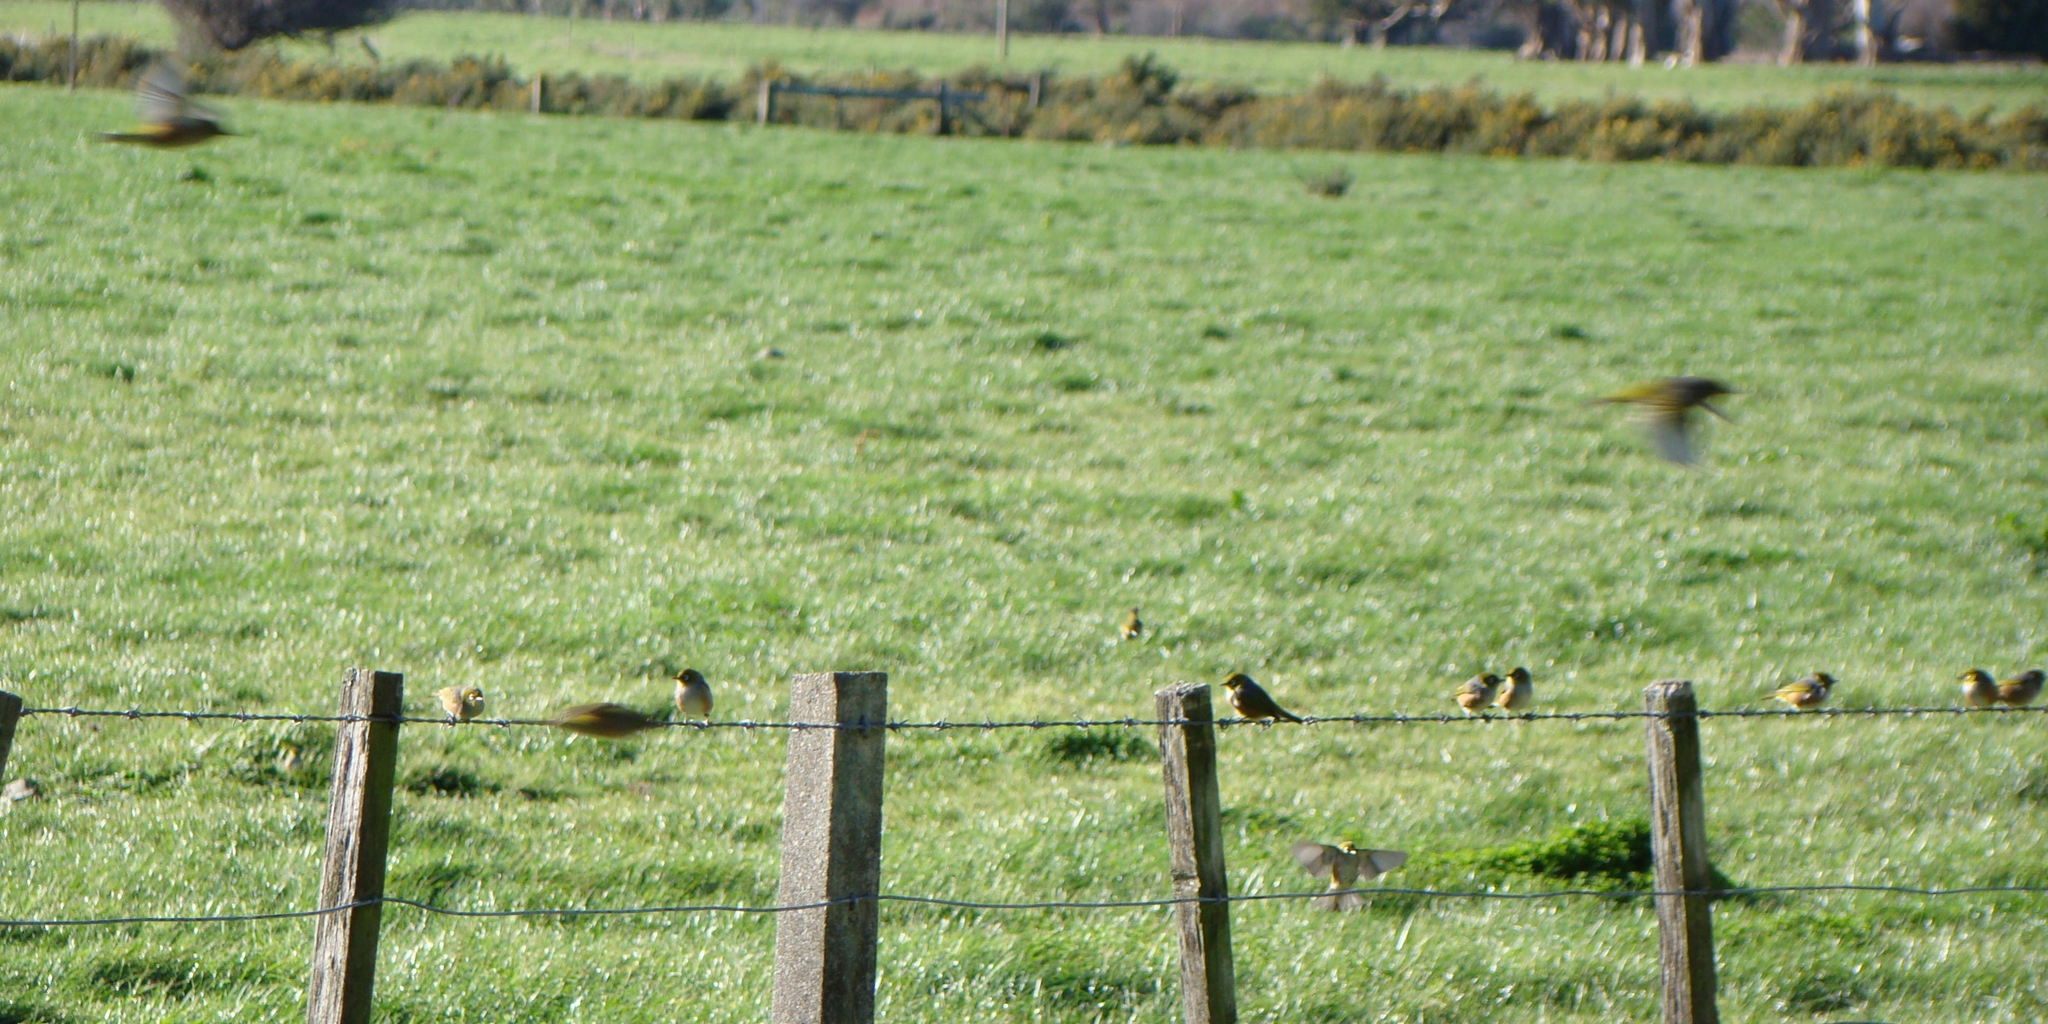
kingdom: Animalia
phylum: Chordata
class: Aves
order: Passeriformes
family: Zosteropidae
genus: Zosterops
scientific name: Zosterops lateralis
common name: Silvereye
